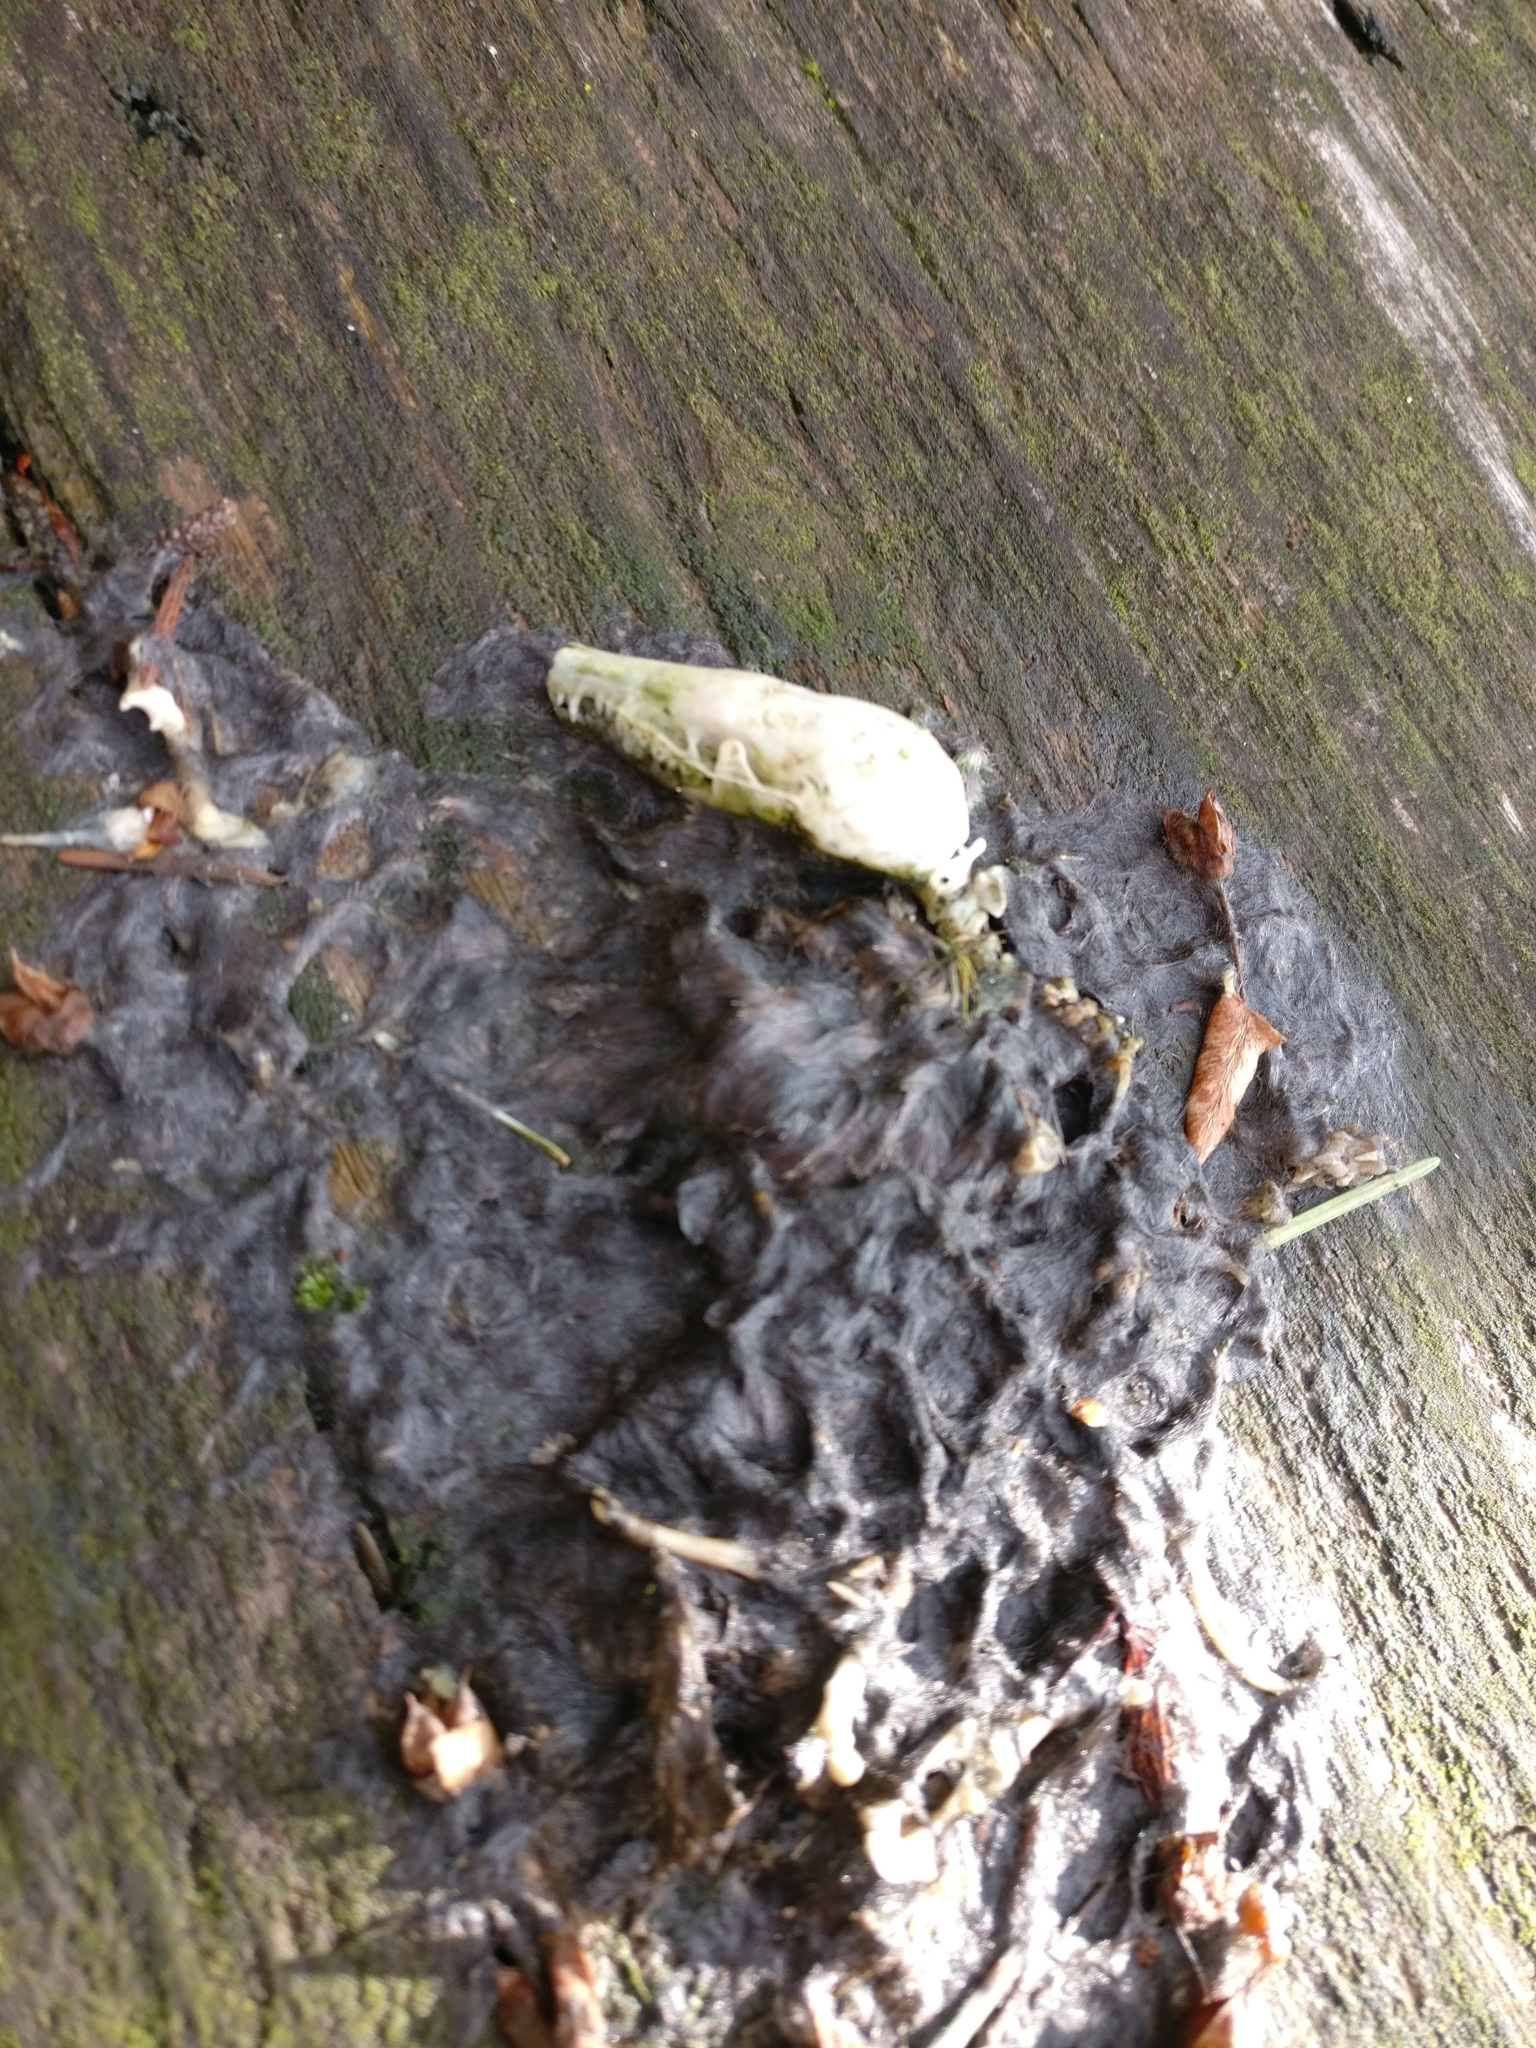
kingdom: Animalia
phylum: Chordata
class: Mammalia
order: Soricomorpha
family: Talpidae
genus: Scapanus
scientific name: Scapanus orarius
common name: Coast mole
